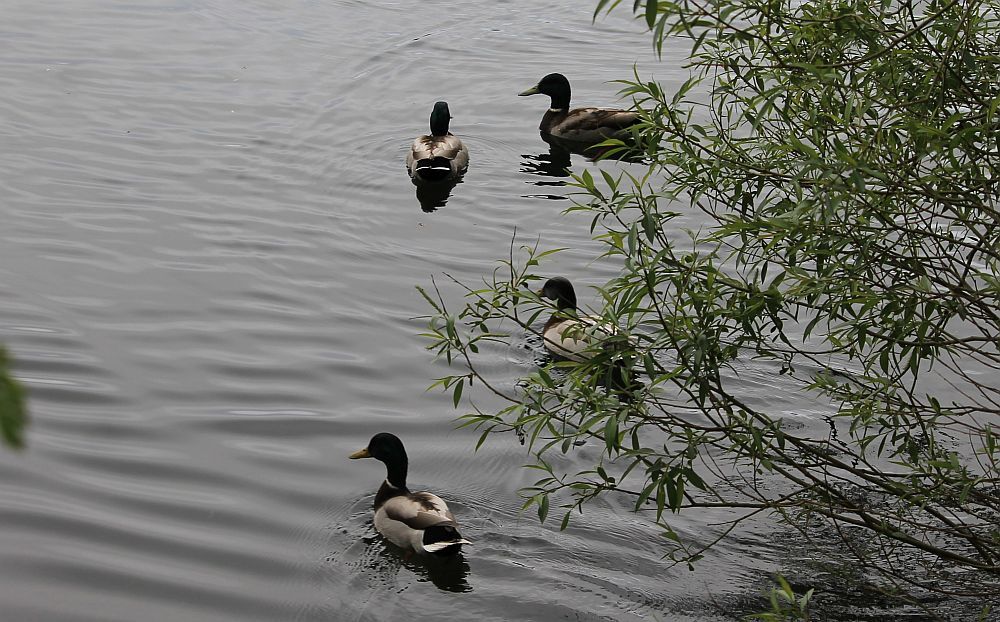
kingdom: Animalia
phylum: Chordata
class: Aves
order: Anseriformes
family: Anatidae
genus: Anas
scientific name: Anas platyrhynchos
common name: Mallard
